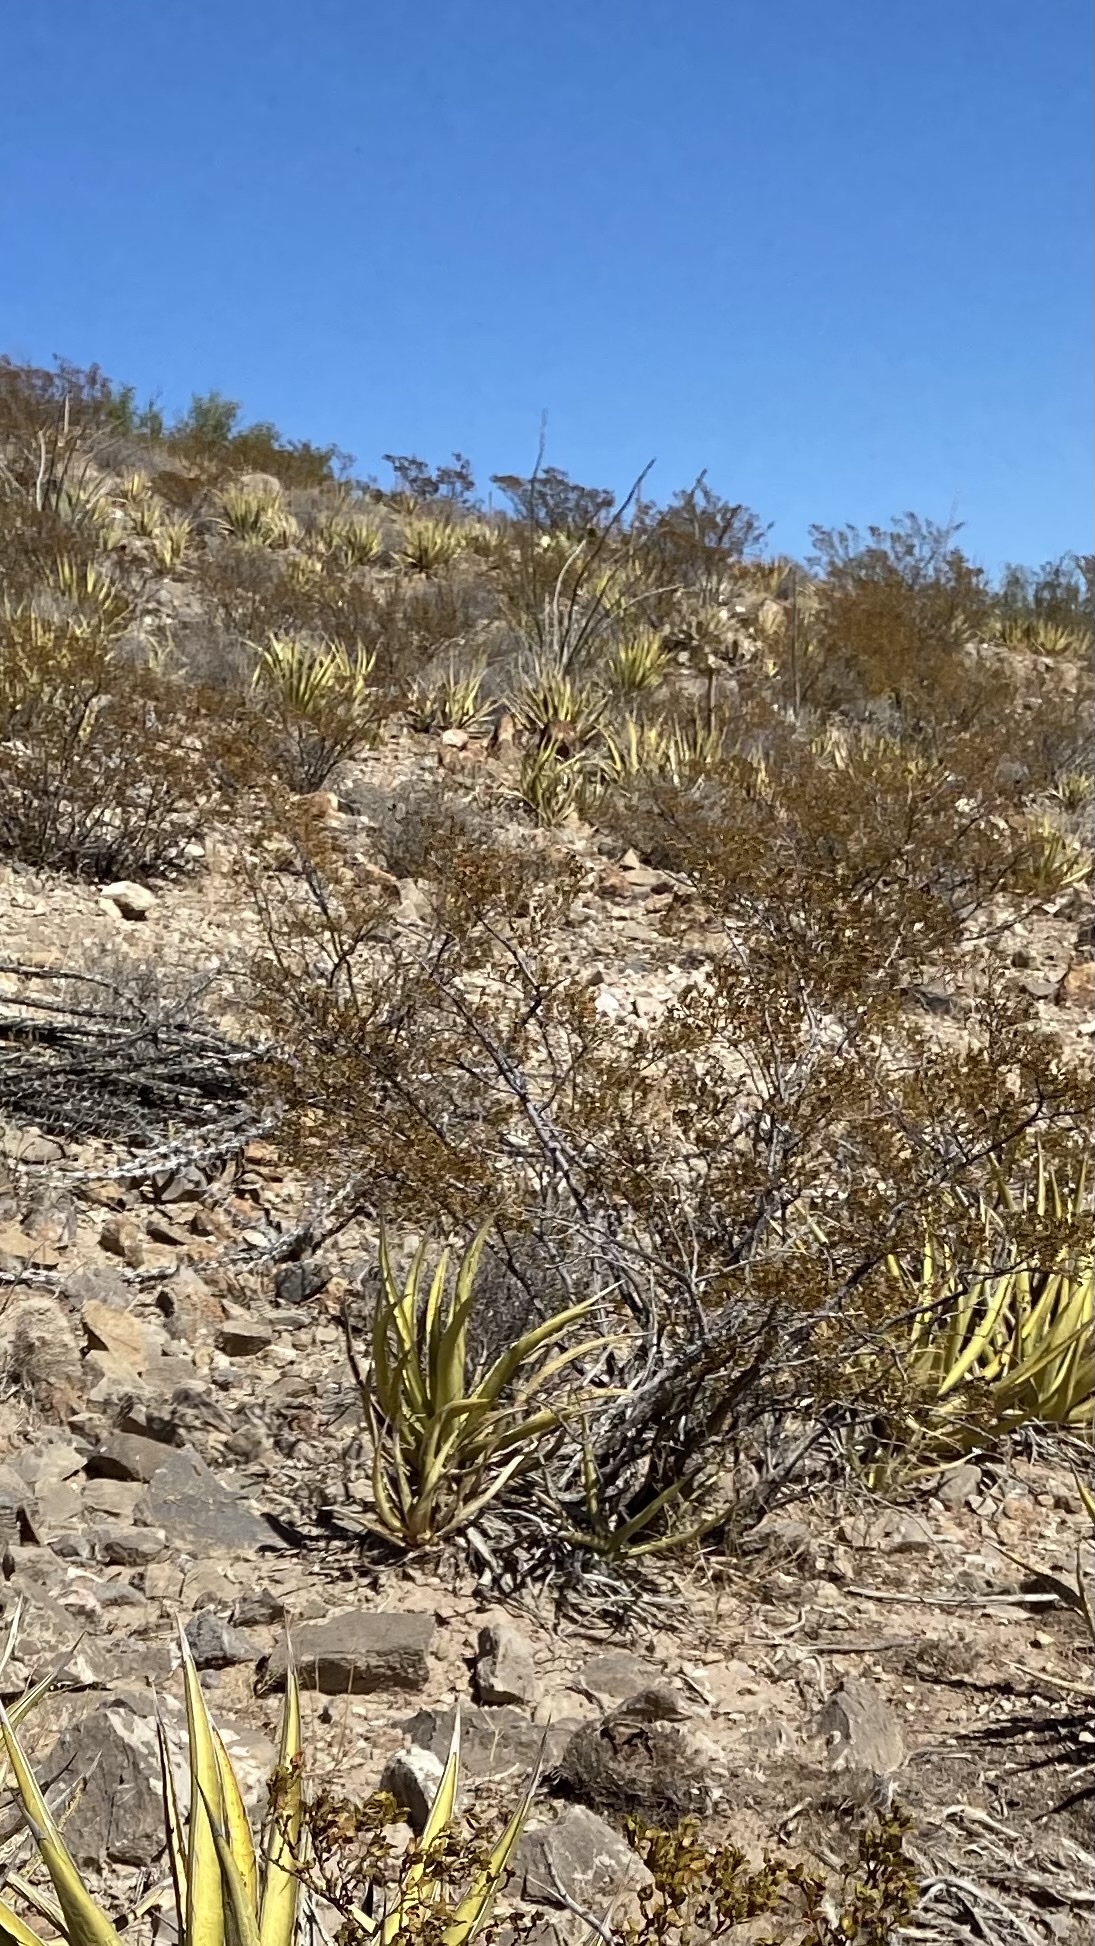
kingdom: Plantae
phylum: Tracheophyta
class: Magnoliopsida
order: Zygophyllales
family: Zygophyllaceae
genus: Larrea
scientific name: Larrea tridentata
